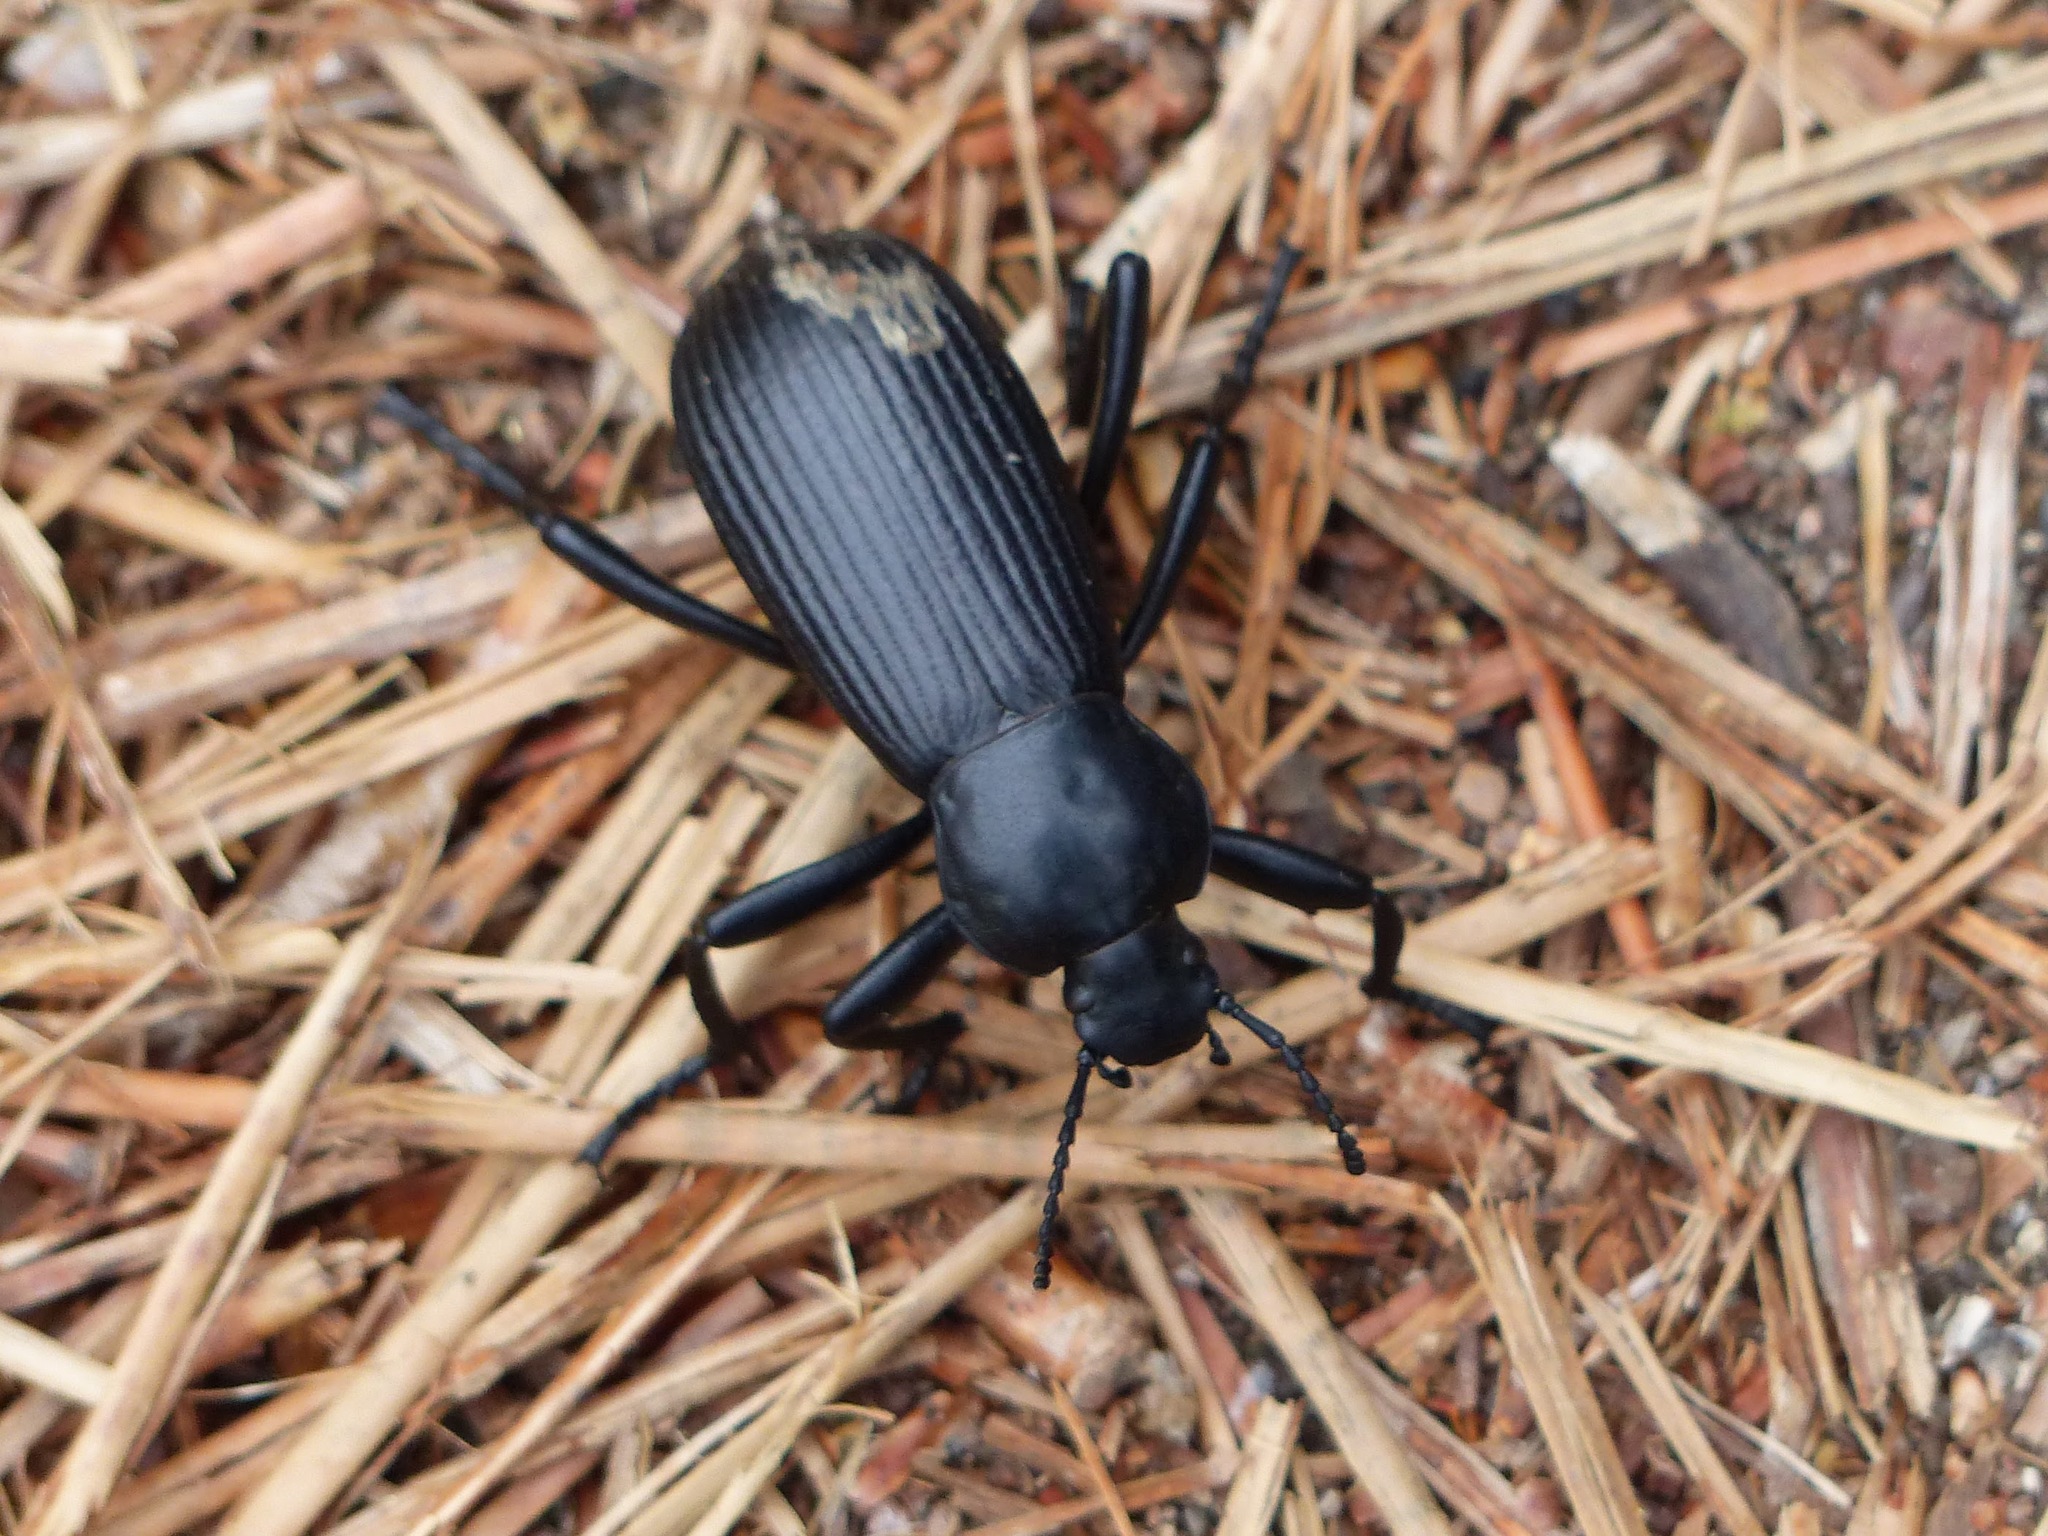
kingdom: Animalia
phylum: Arthropoda
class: Insecta
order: Coleoptera
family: Tenebrionidae
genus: Eleodes
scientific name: Eleodes obscura
